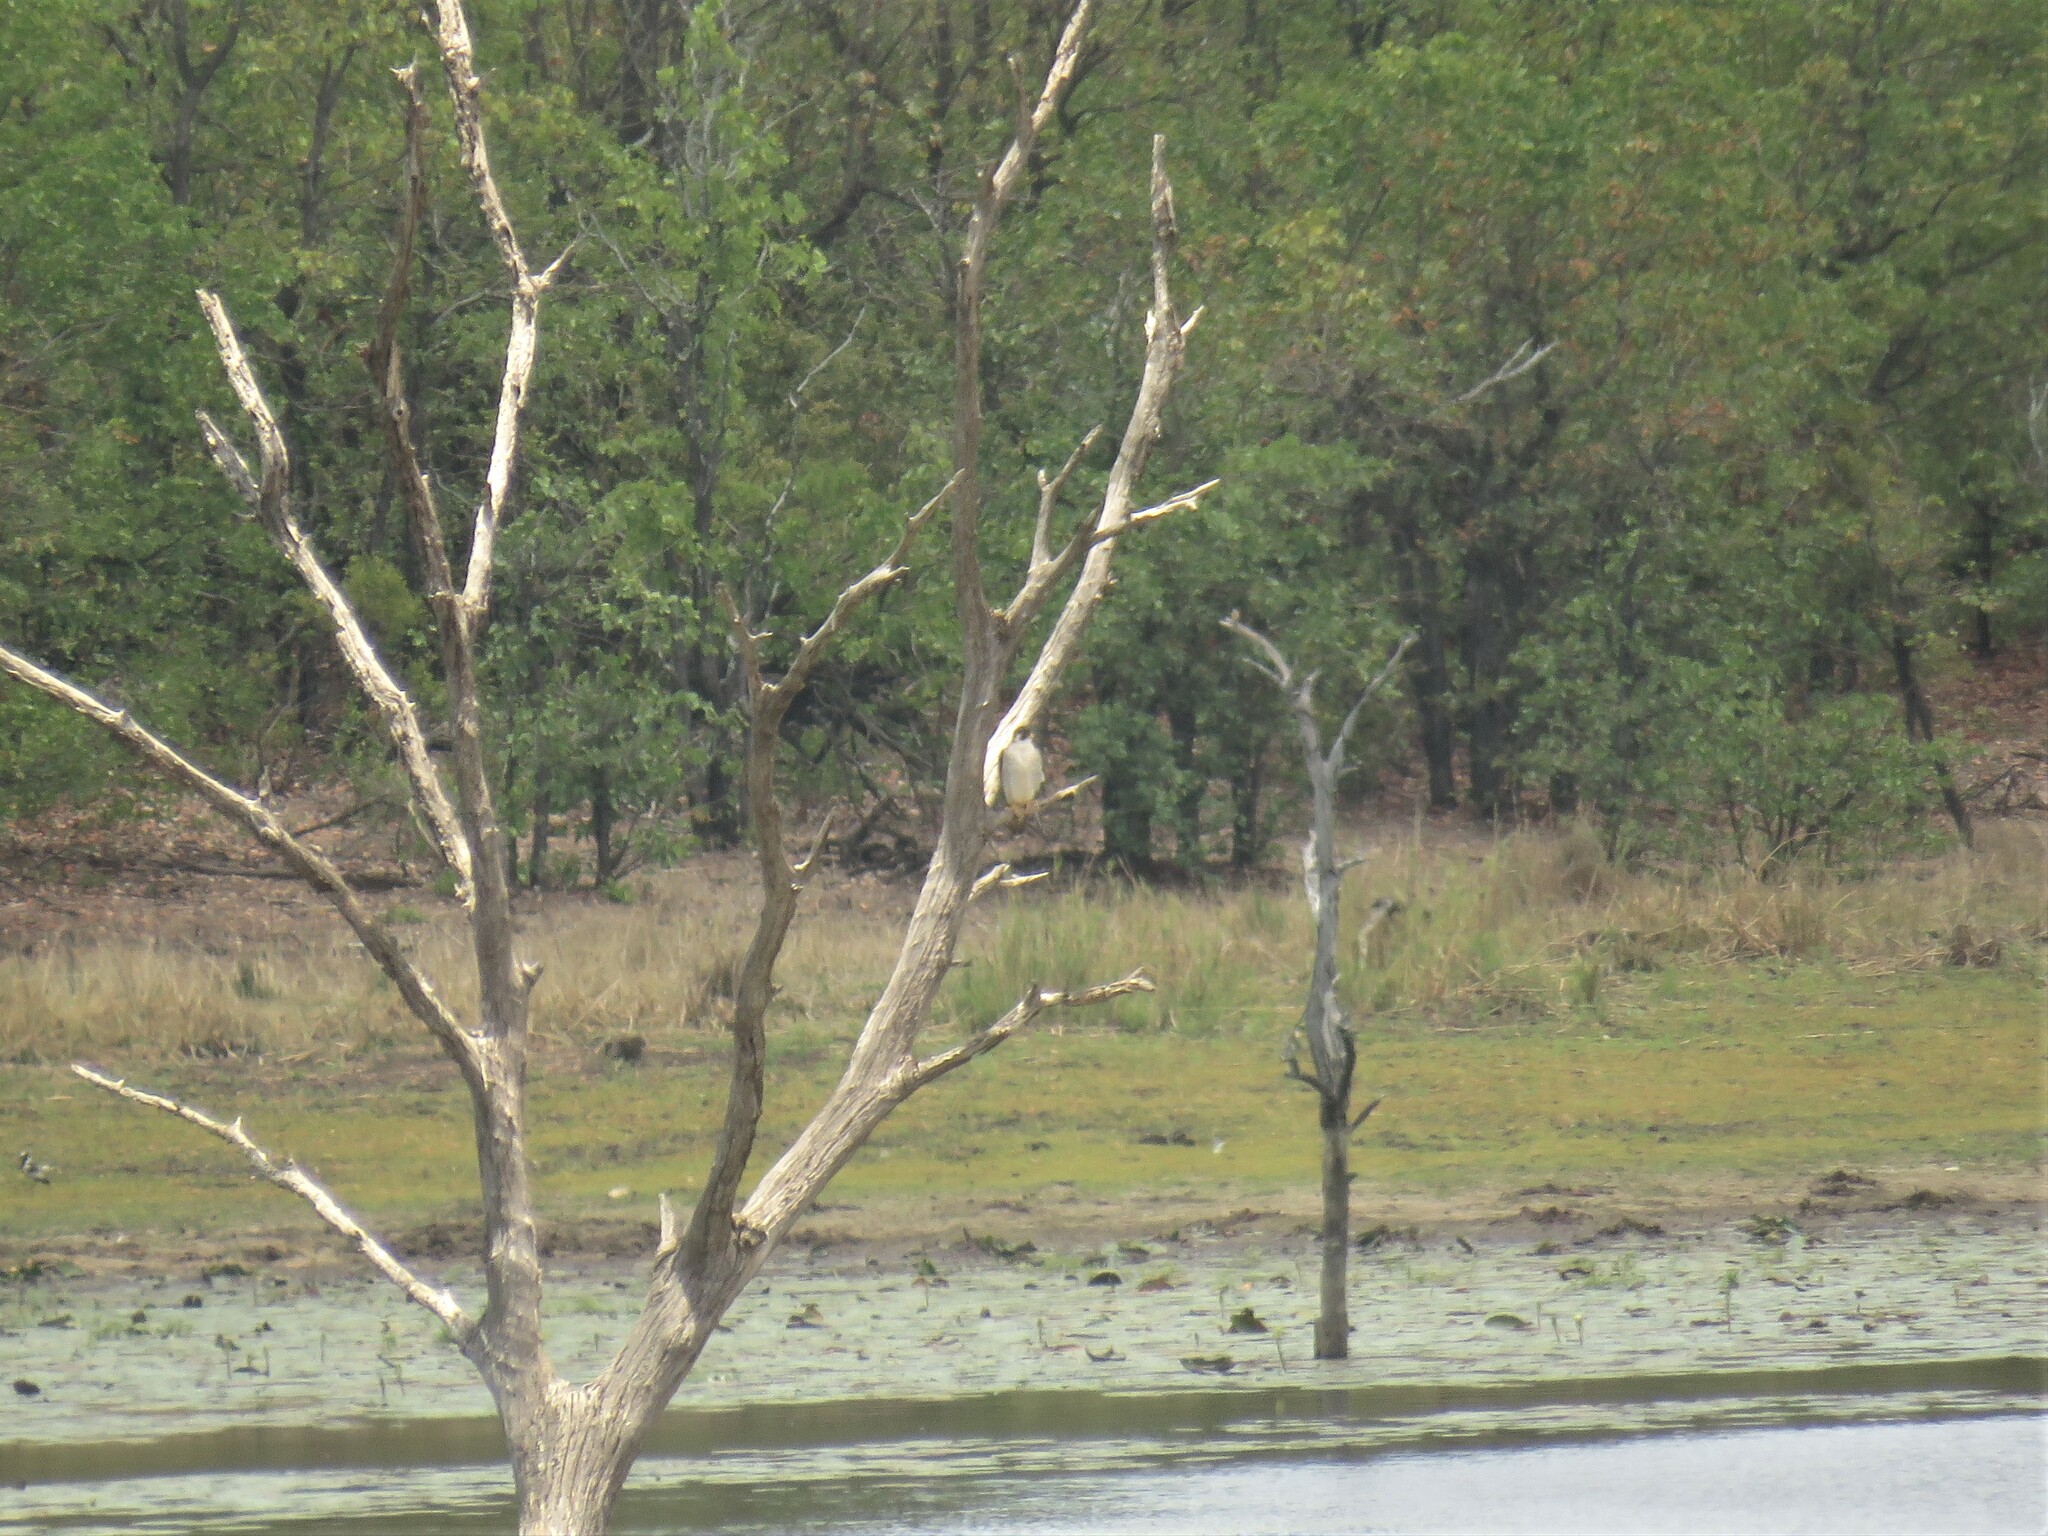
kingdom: Animalia
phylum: Chordata
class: Aves
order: Falconiformes
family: Falconidae
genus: Falco
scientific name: Falco peregrinus
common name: Peregrine falcon
